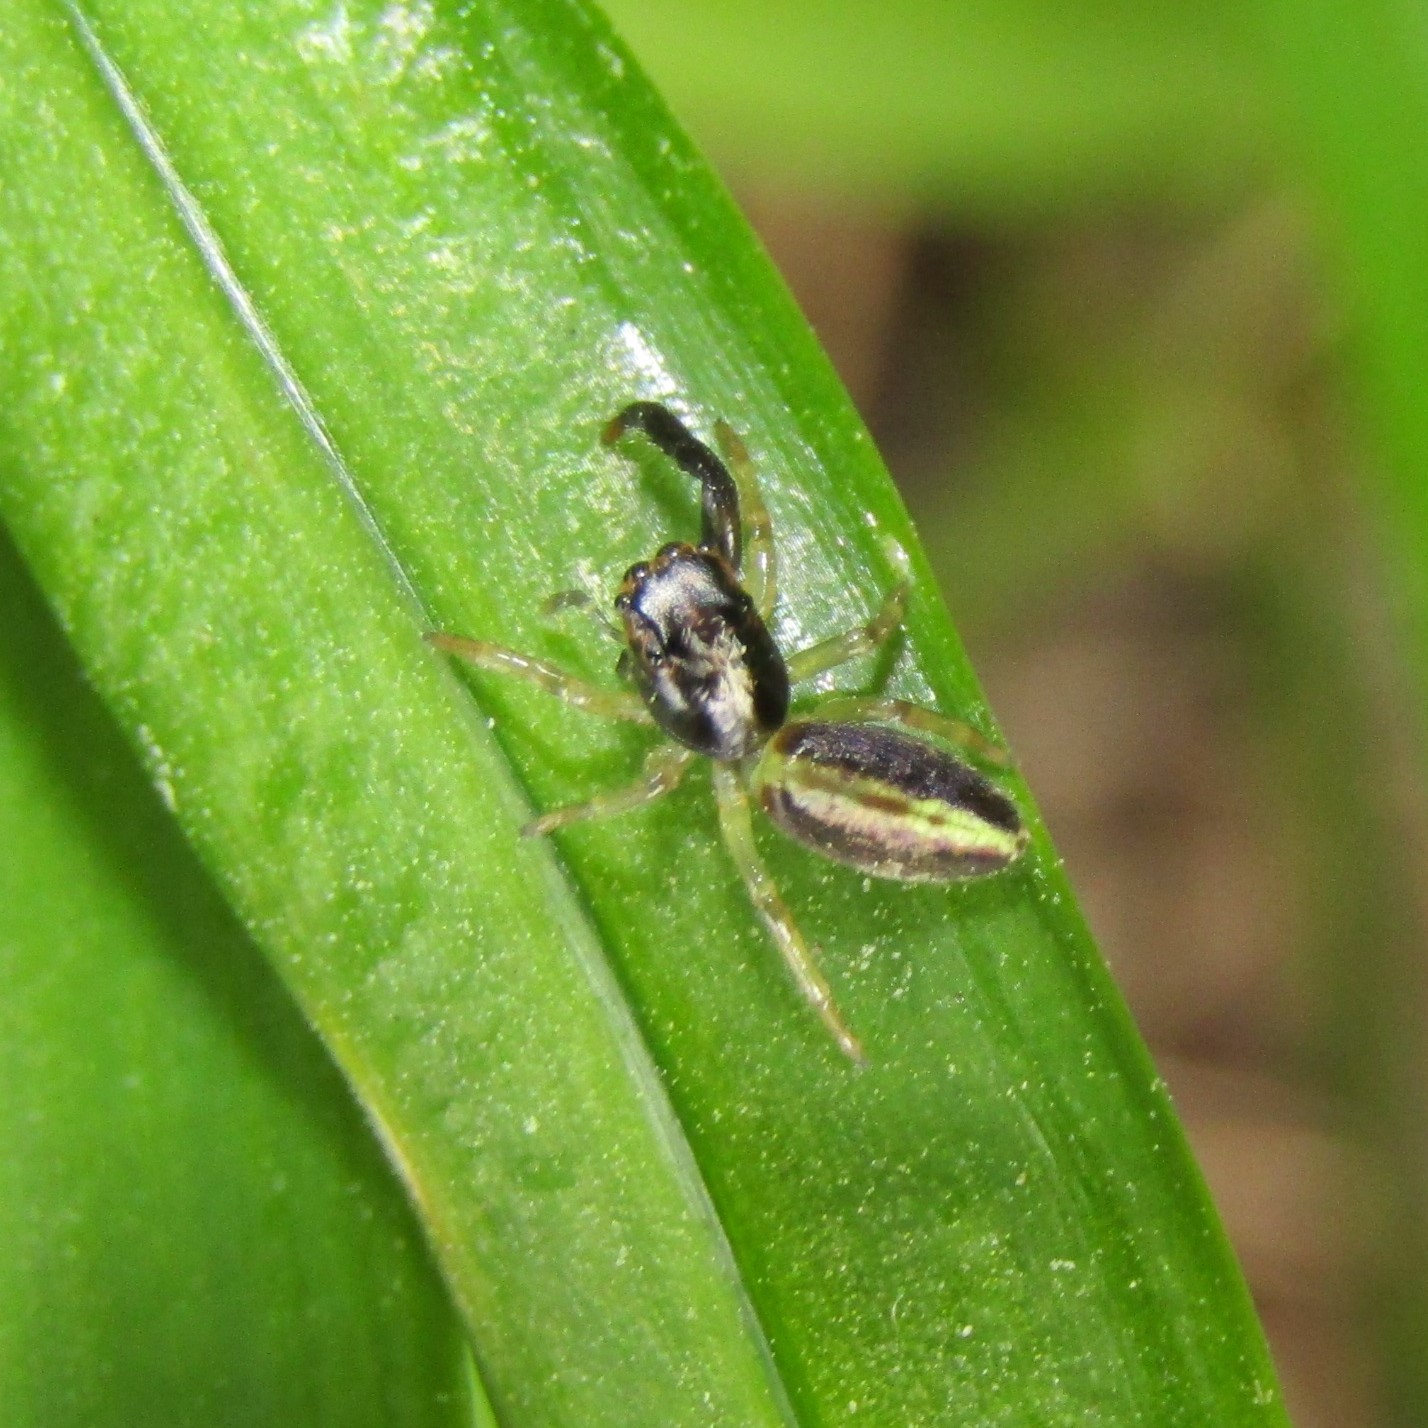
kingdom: Animalia
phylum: Arthropoda
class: Arachnida
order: Araneae
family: Salticidae
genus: Trite
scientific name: Trite planiceps
